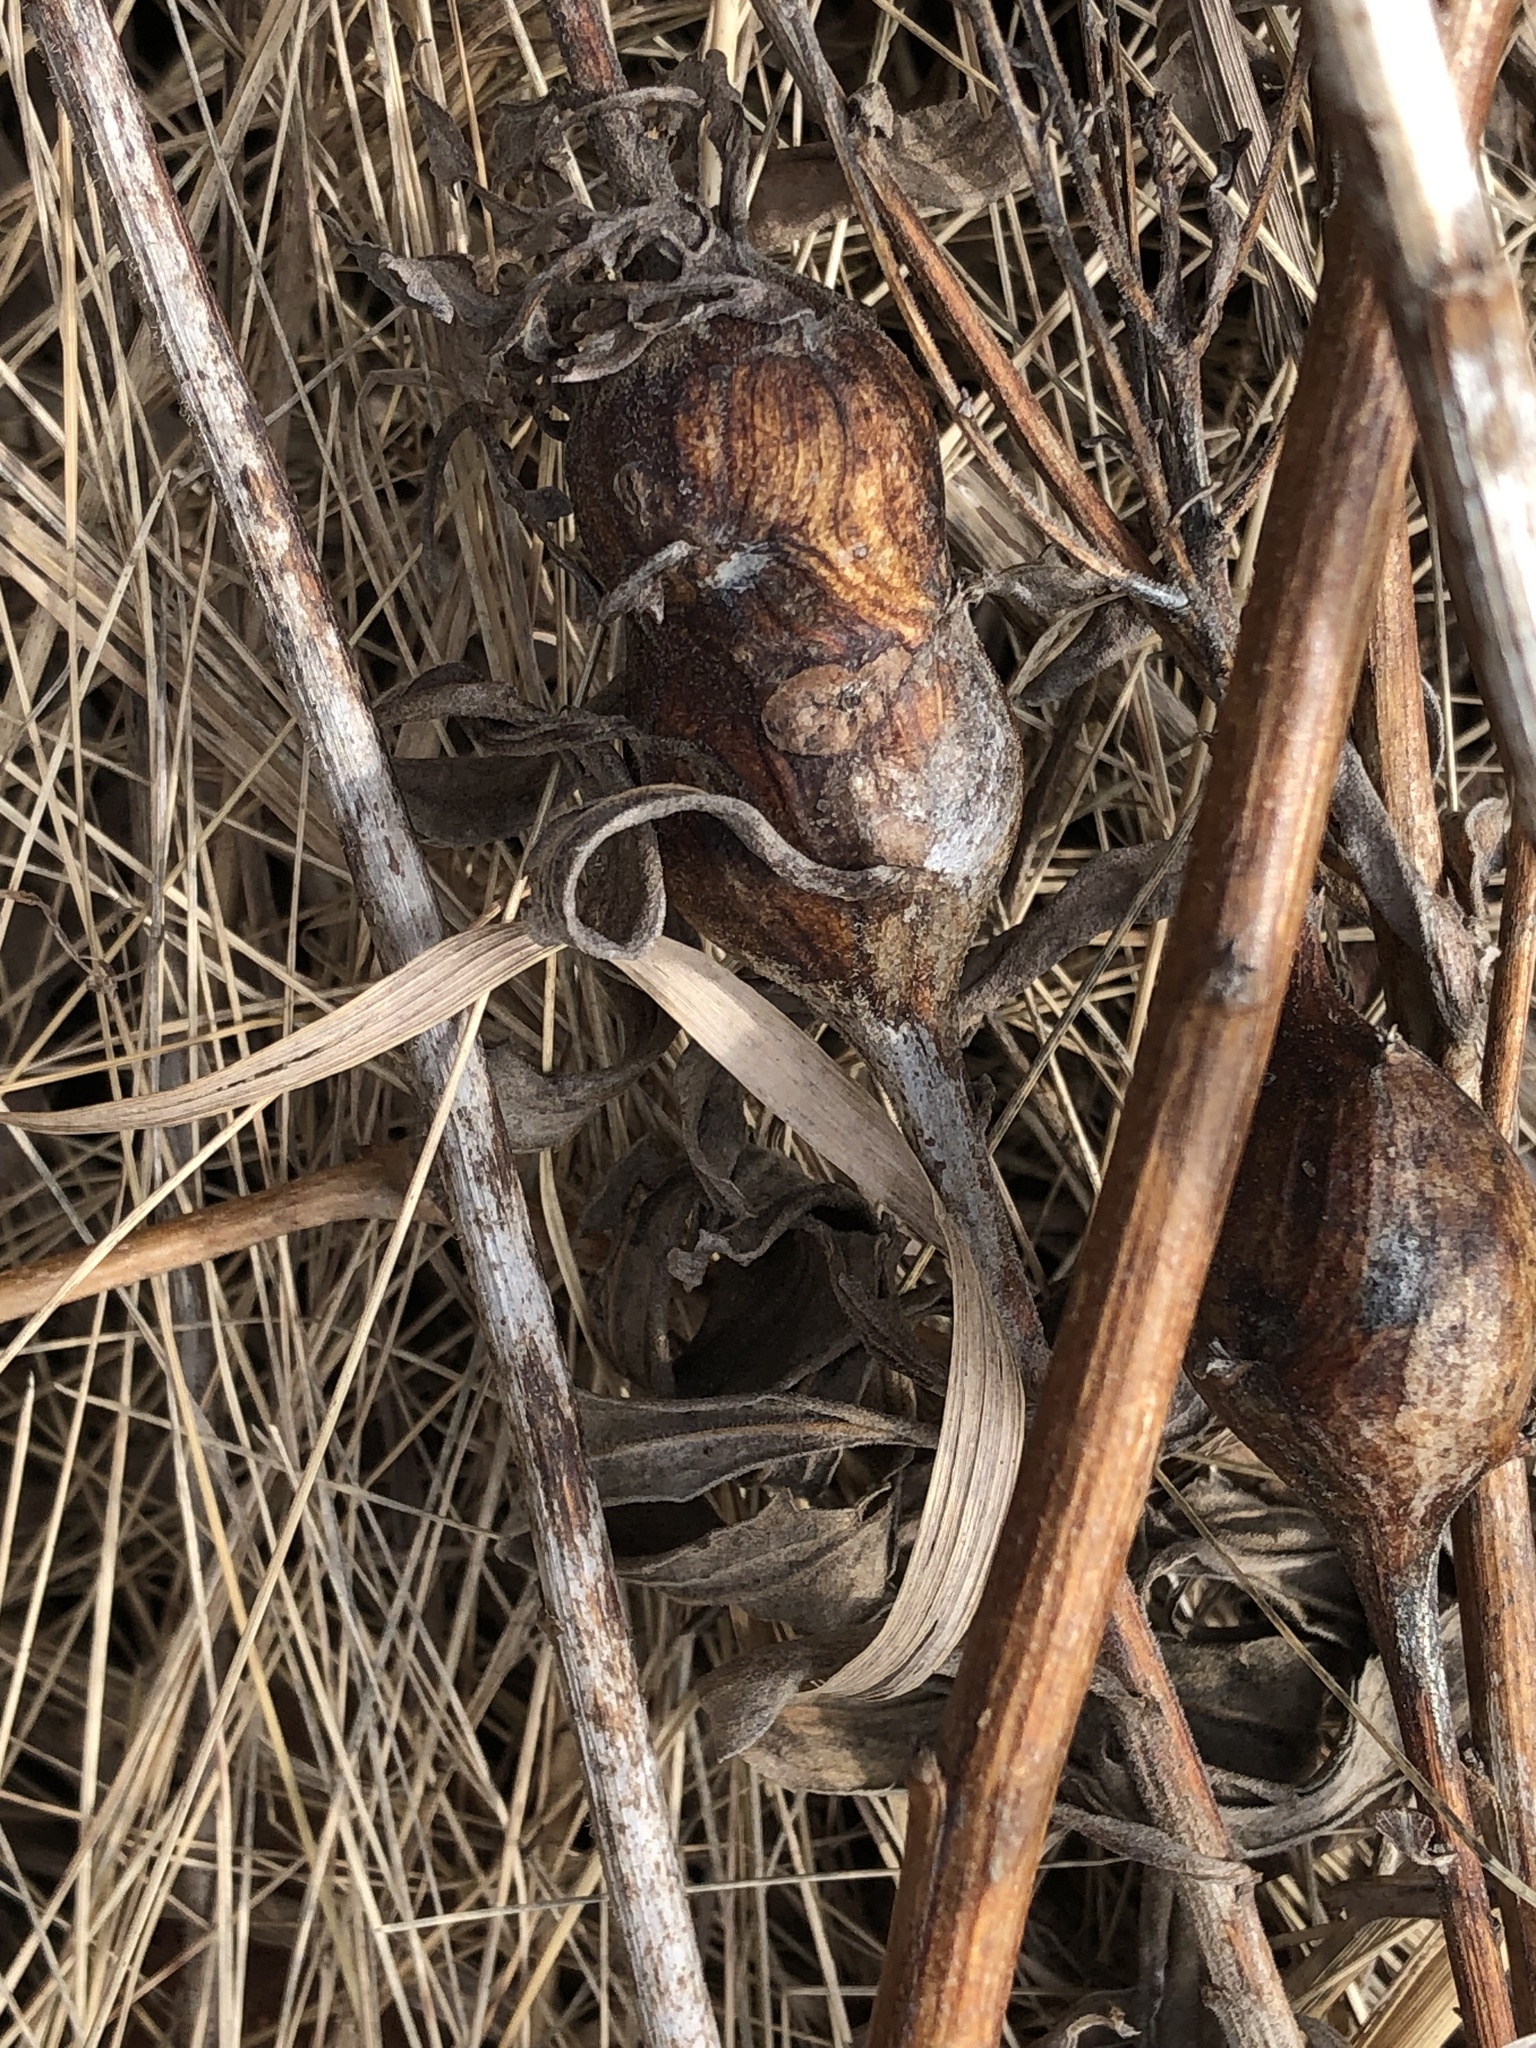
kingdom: Animalia
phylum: Arthropoda
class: Insecta
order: Diptera
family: Tephritidae
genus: Eurosta
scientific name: Eurosta solidaginis
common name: Goldenrod gall fly
